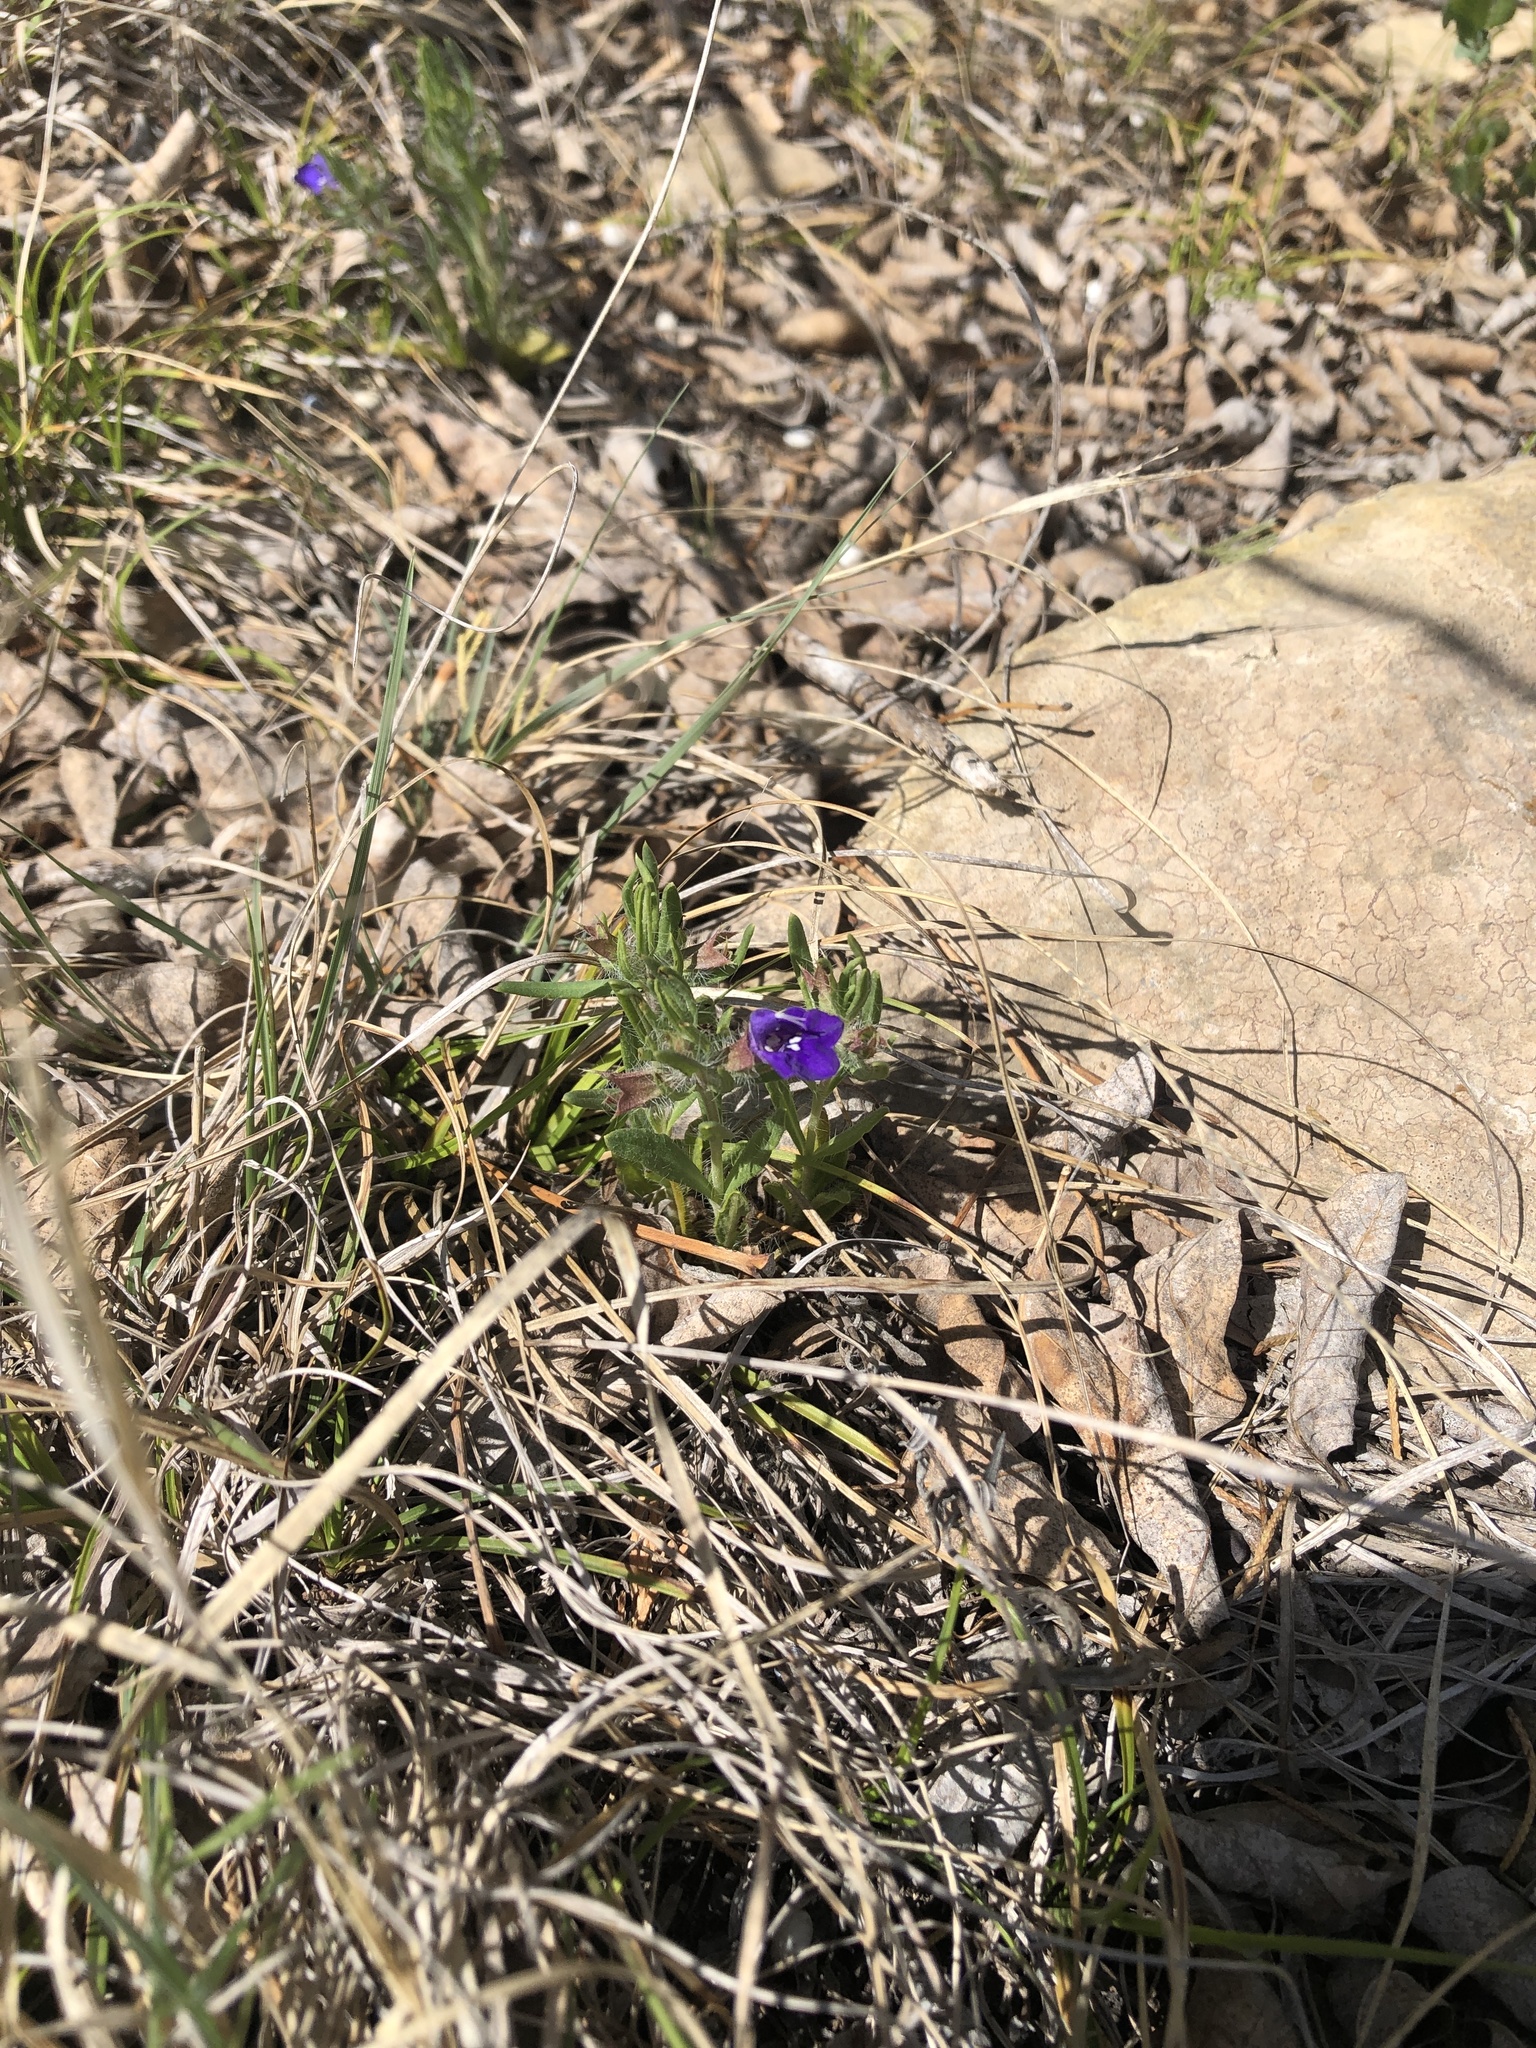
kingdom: Plantae
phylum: Tracheophyta
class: Magnoliopsida
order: Lamiales
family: Lamiaceae
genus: Salvia
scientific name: Salvia texana
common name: Texas sage
